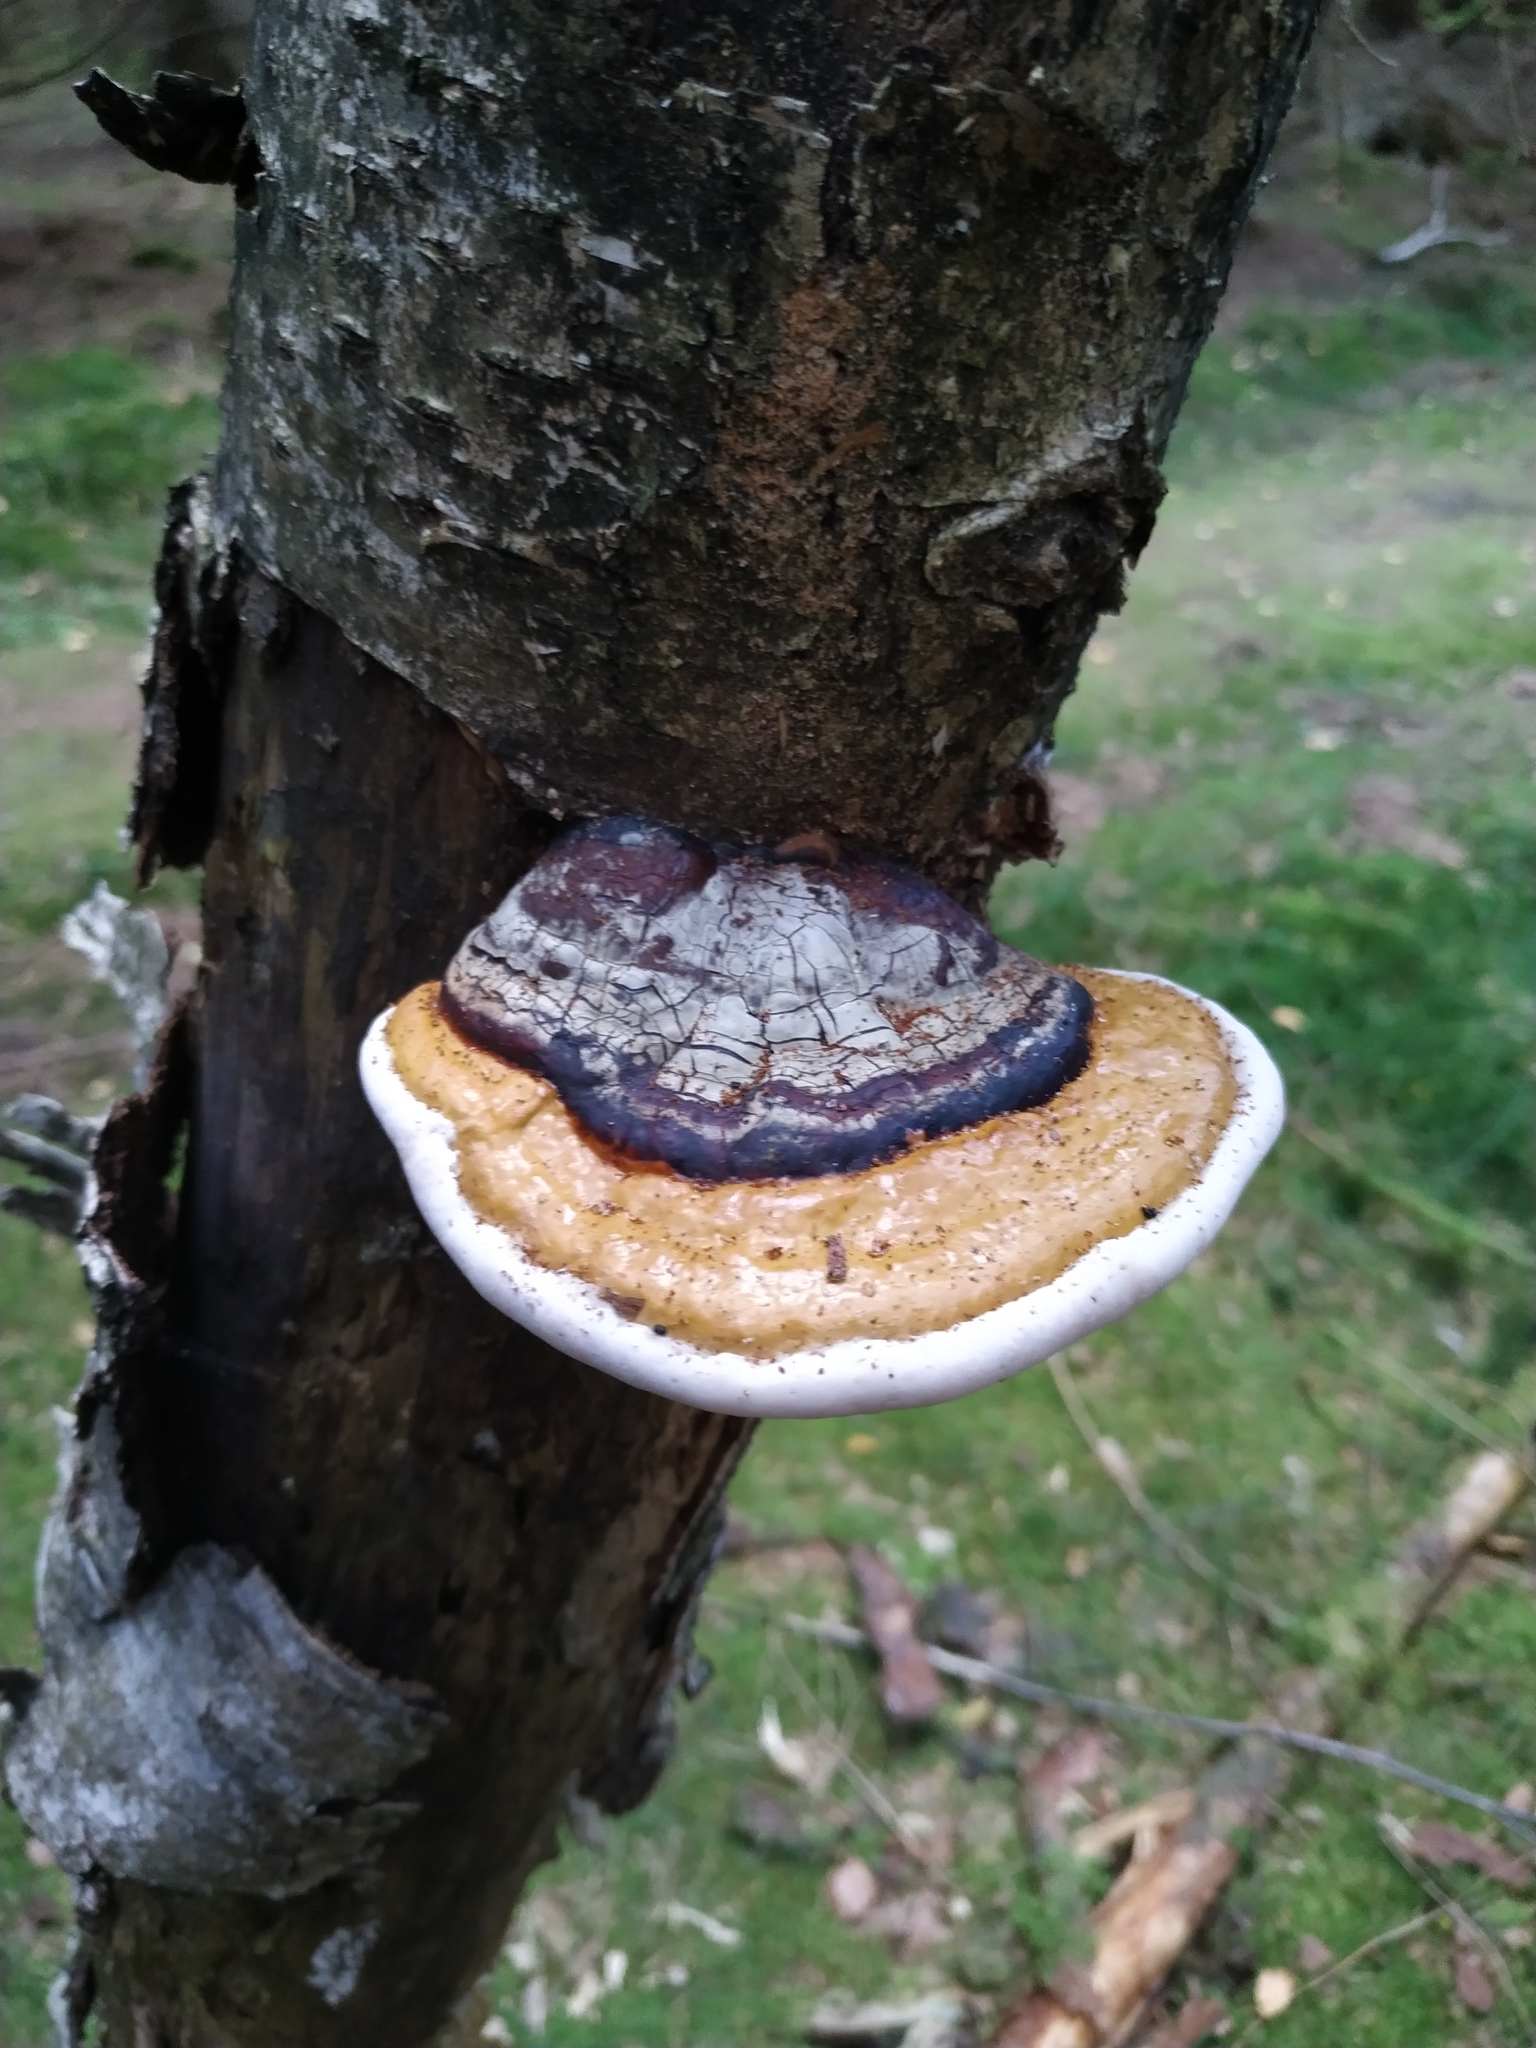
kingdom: Fungi
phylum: Basidiomycota
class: Agaricomycetes
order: Polyporales
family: Fomitopsidaceae
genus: Fomitopsis
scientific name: Fomitopsis pinicola
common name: Red-belted bracket
